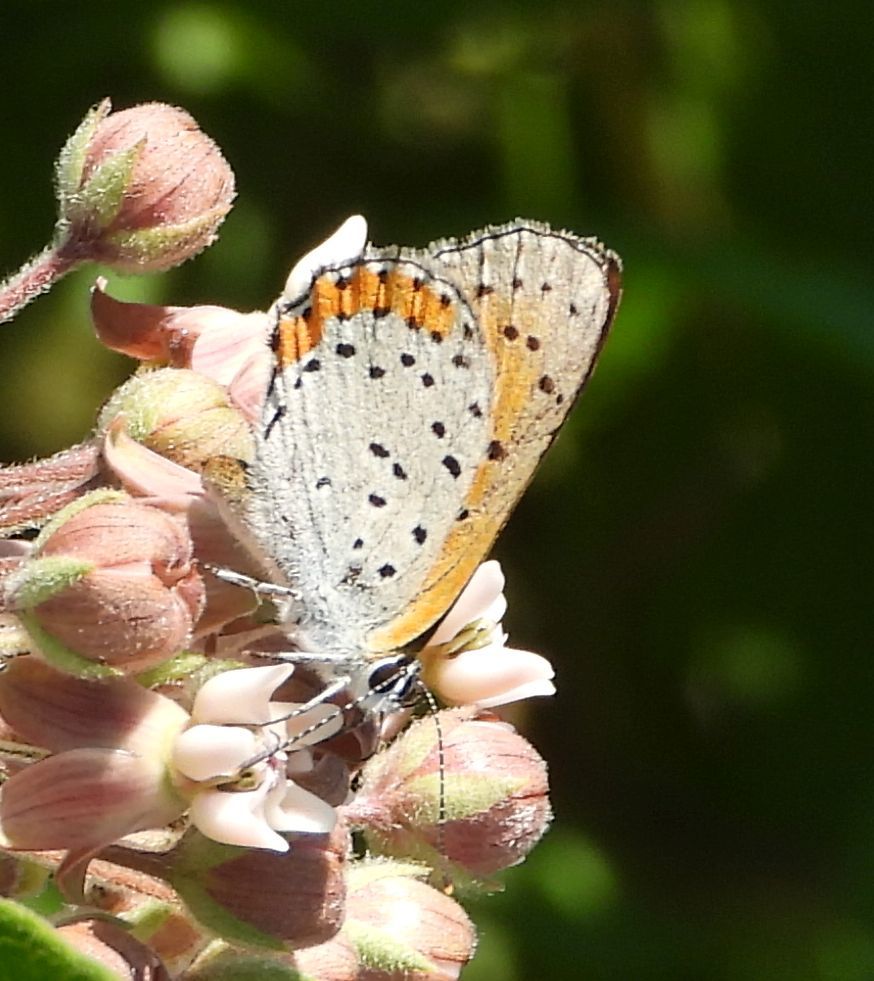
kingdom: Animalia
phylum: Arthropoda
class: Insecta
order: Lepidoptera
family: Lycaenidae
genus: Tharsalea
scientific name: Tharsalea hyllus
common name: Bronze copper
